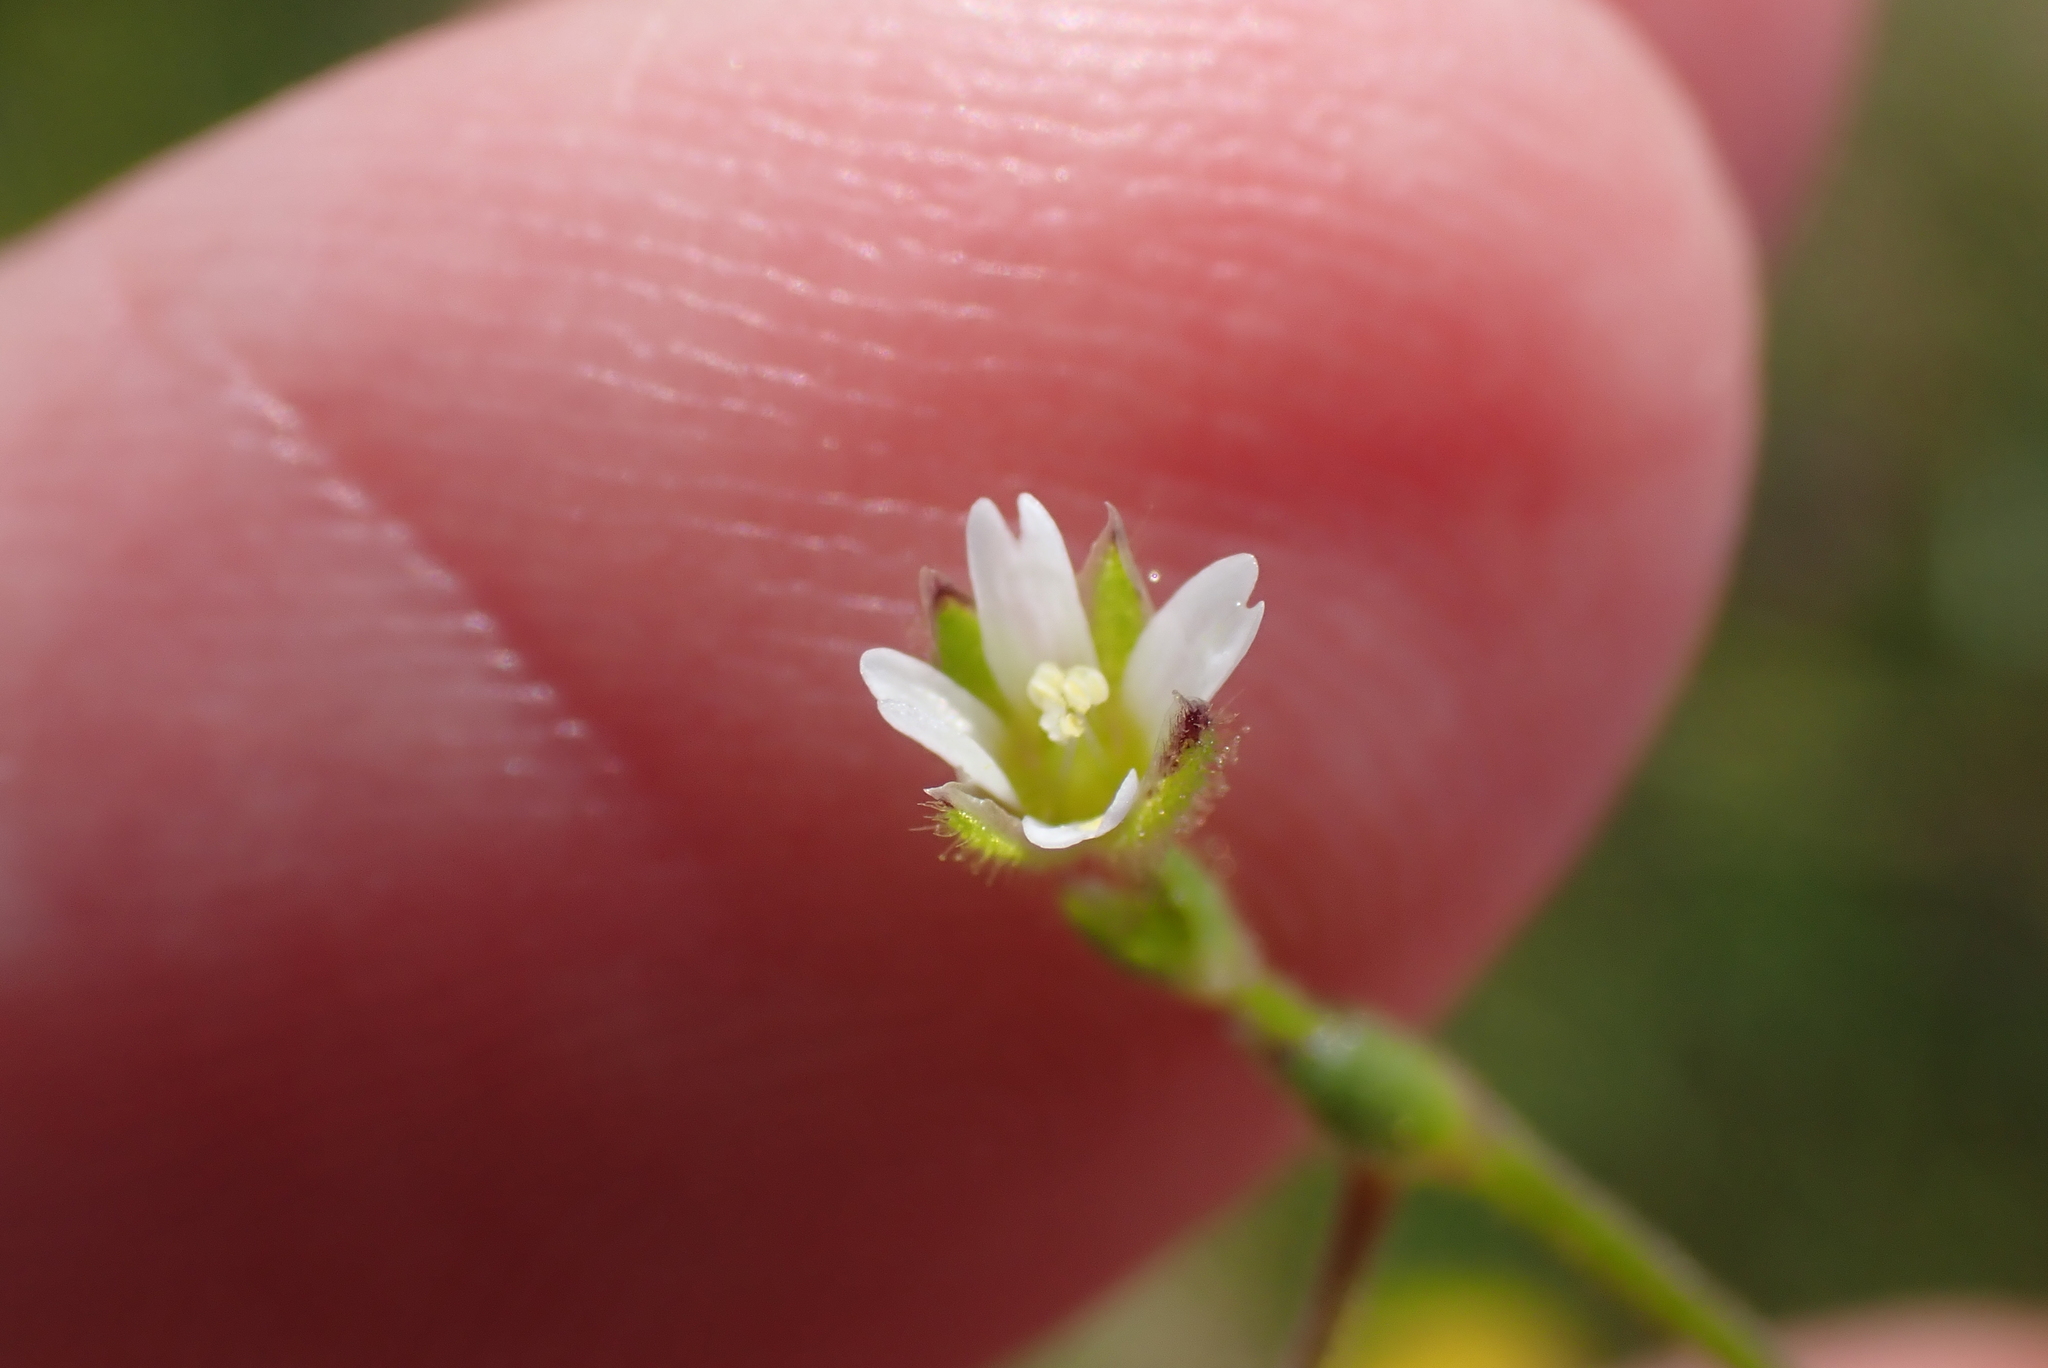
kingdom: Plantae
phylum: Tracheophyta
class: Magnoliopsida
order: Caryophyllales
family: Caryophyllaceae
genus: Cerastium
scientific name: Cerastium diffusum
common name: Fourstamen chickweed
